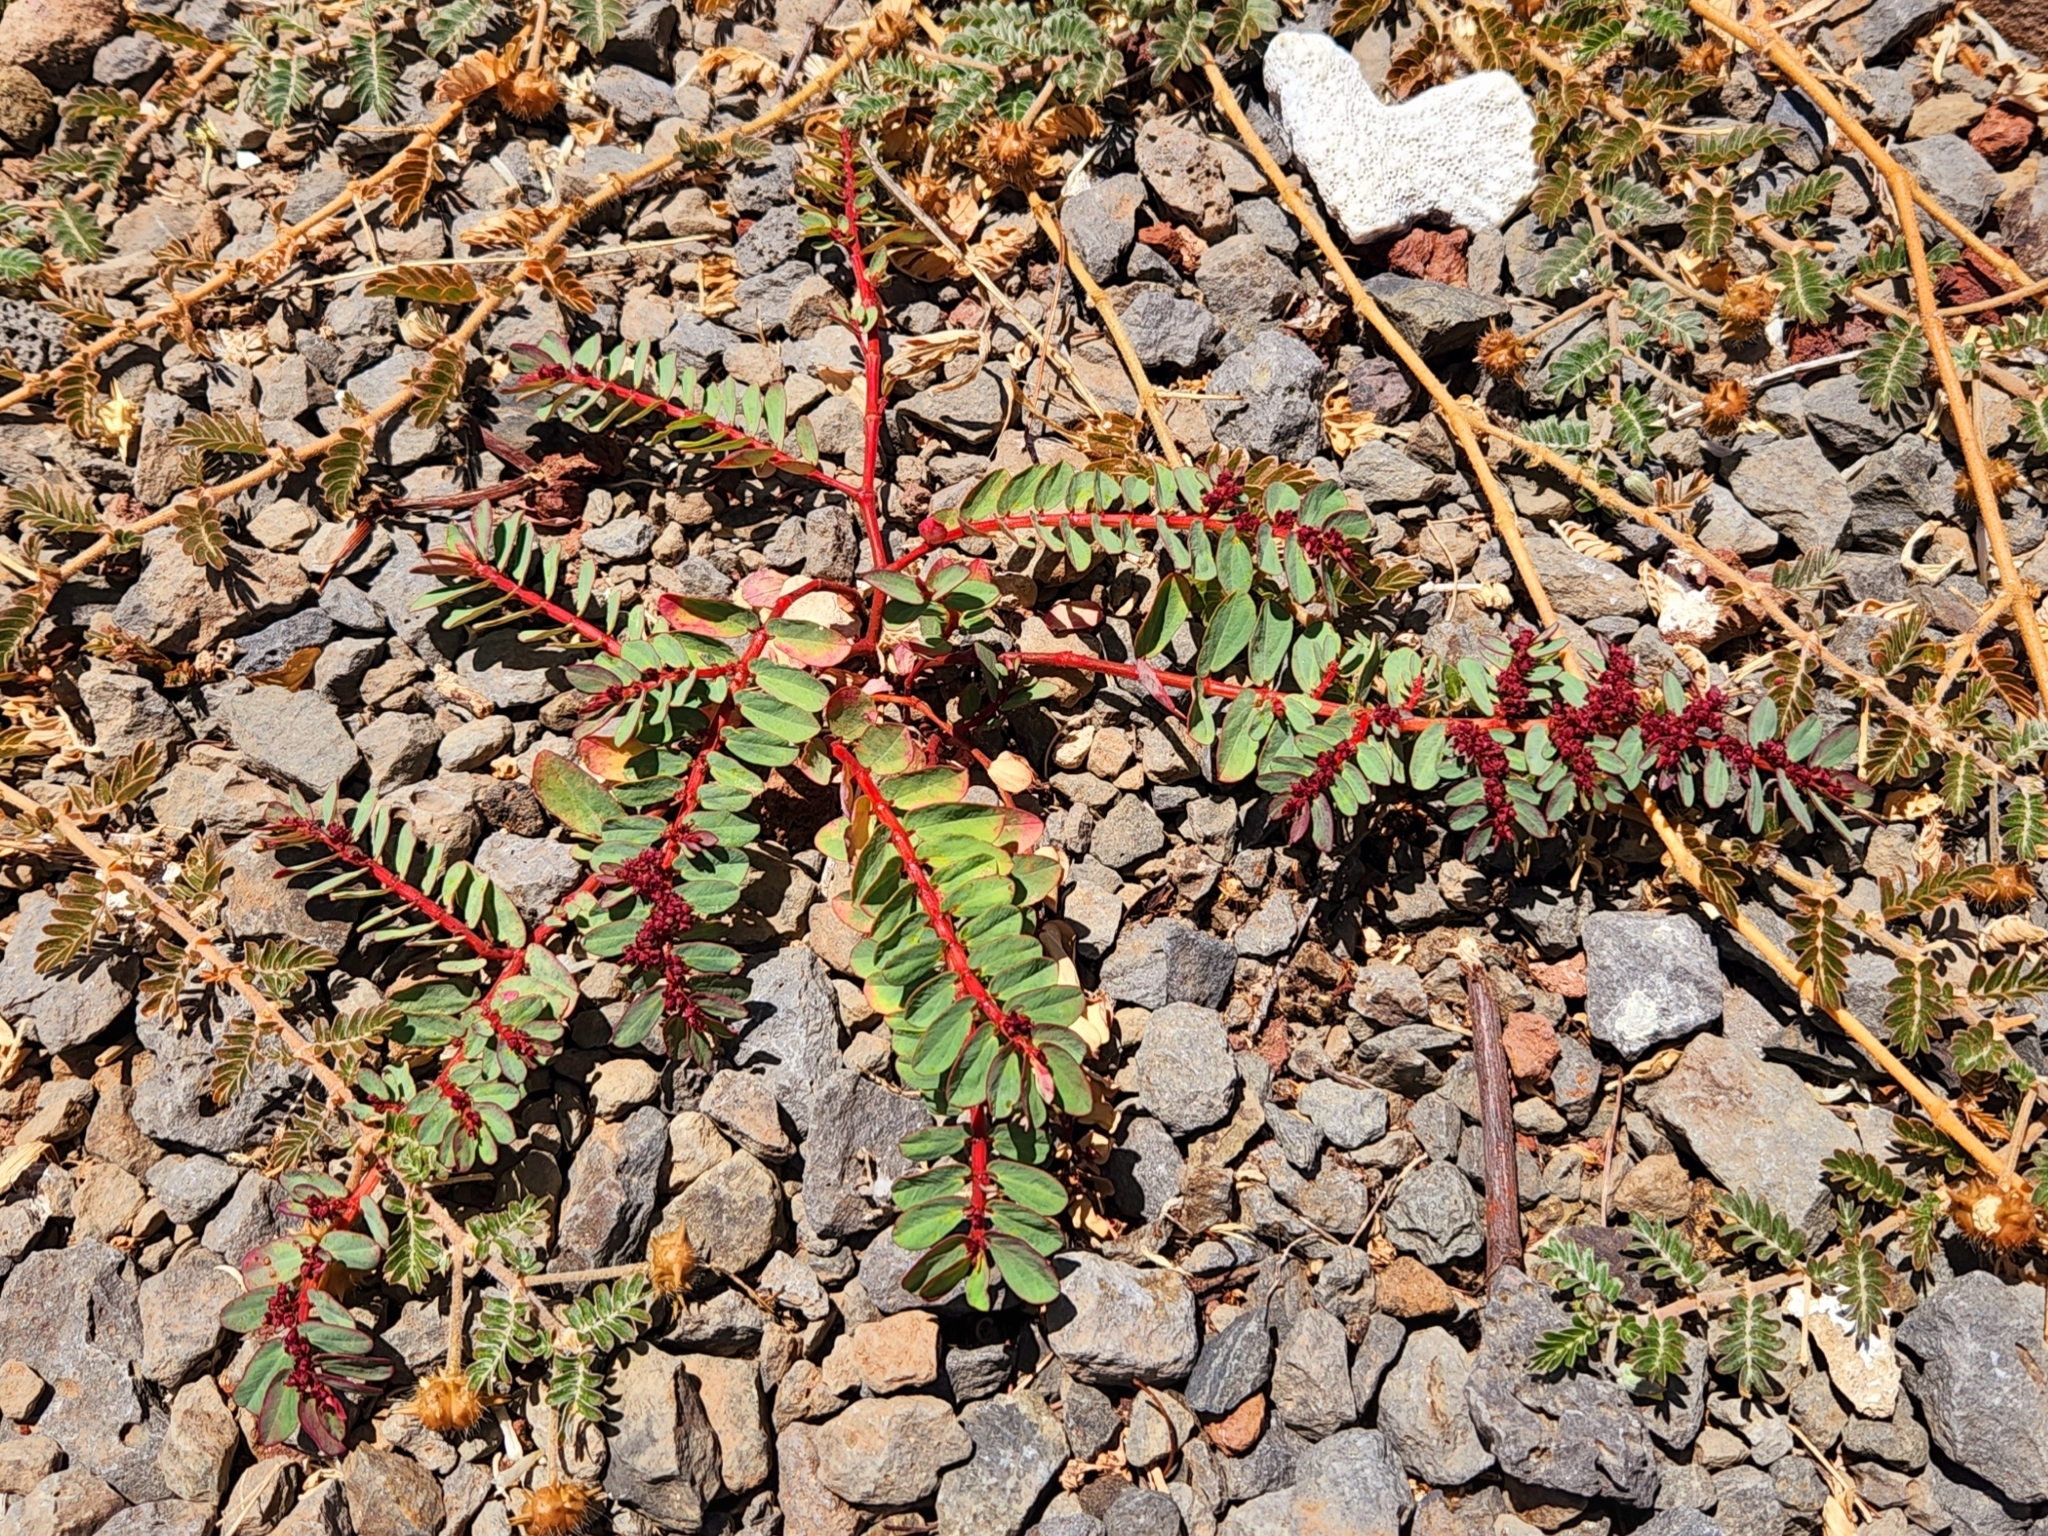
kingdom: Plantae
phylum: Tracheophyta
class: Magnoliopsida
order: Malpighiales
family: Euphorbiaceae
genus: Euphorbia
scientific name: Euphorbia anthonyi
